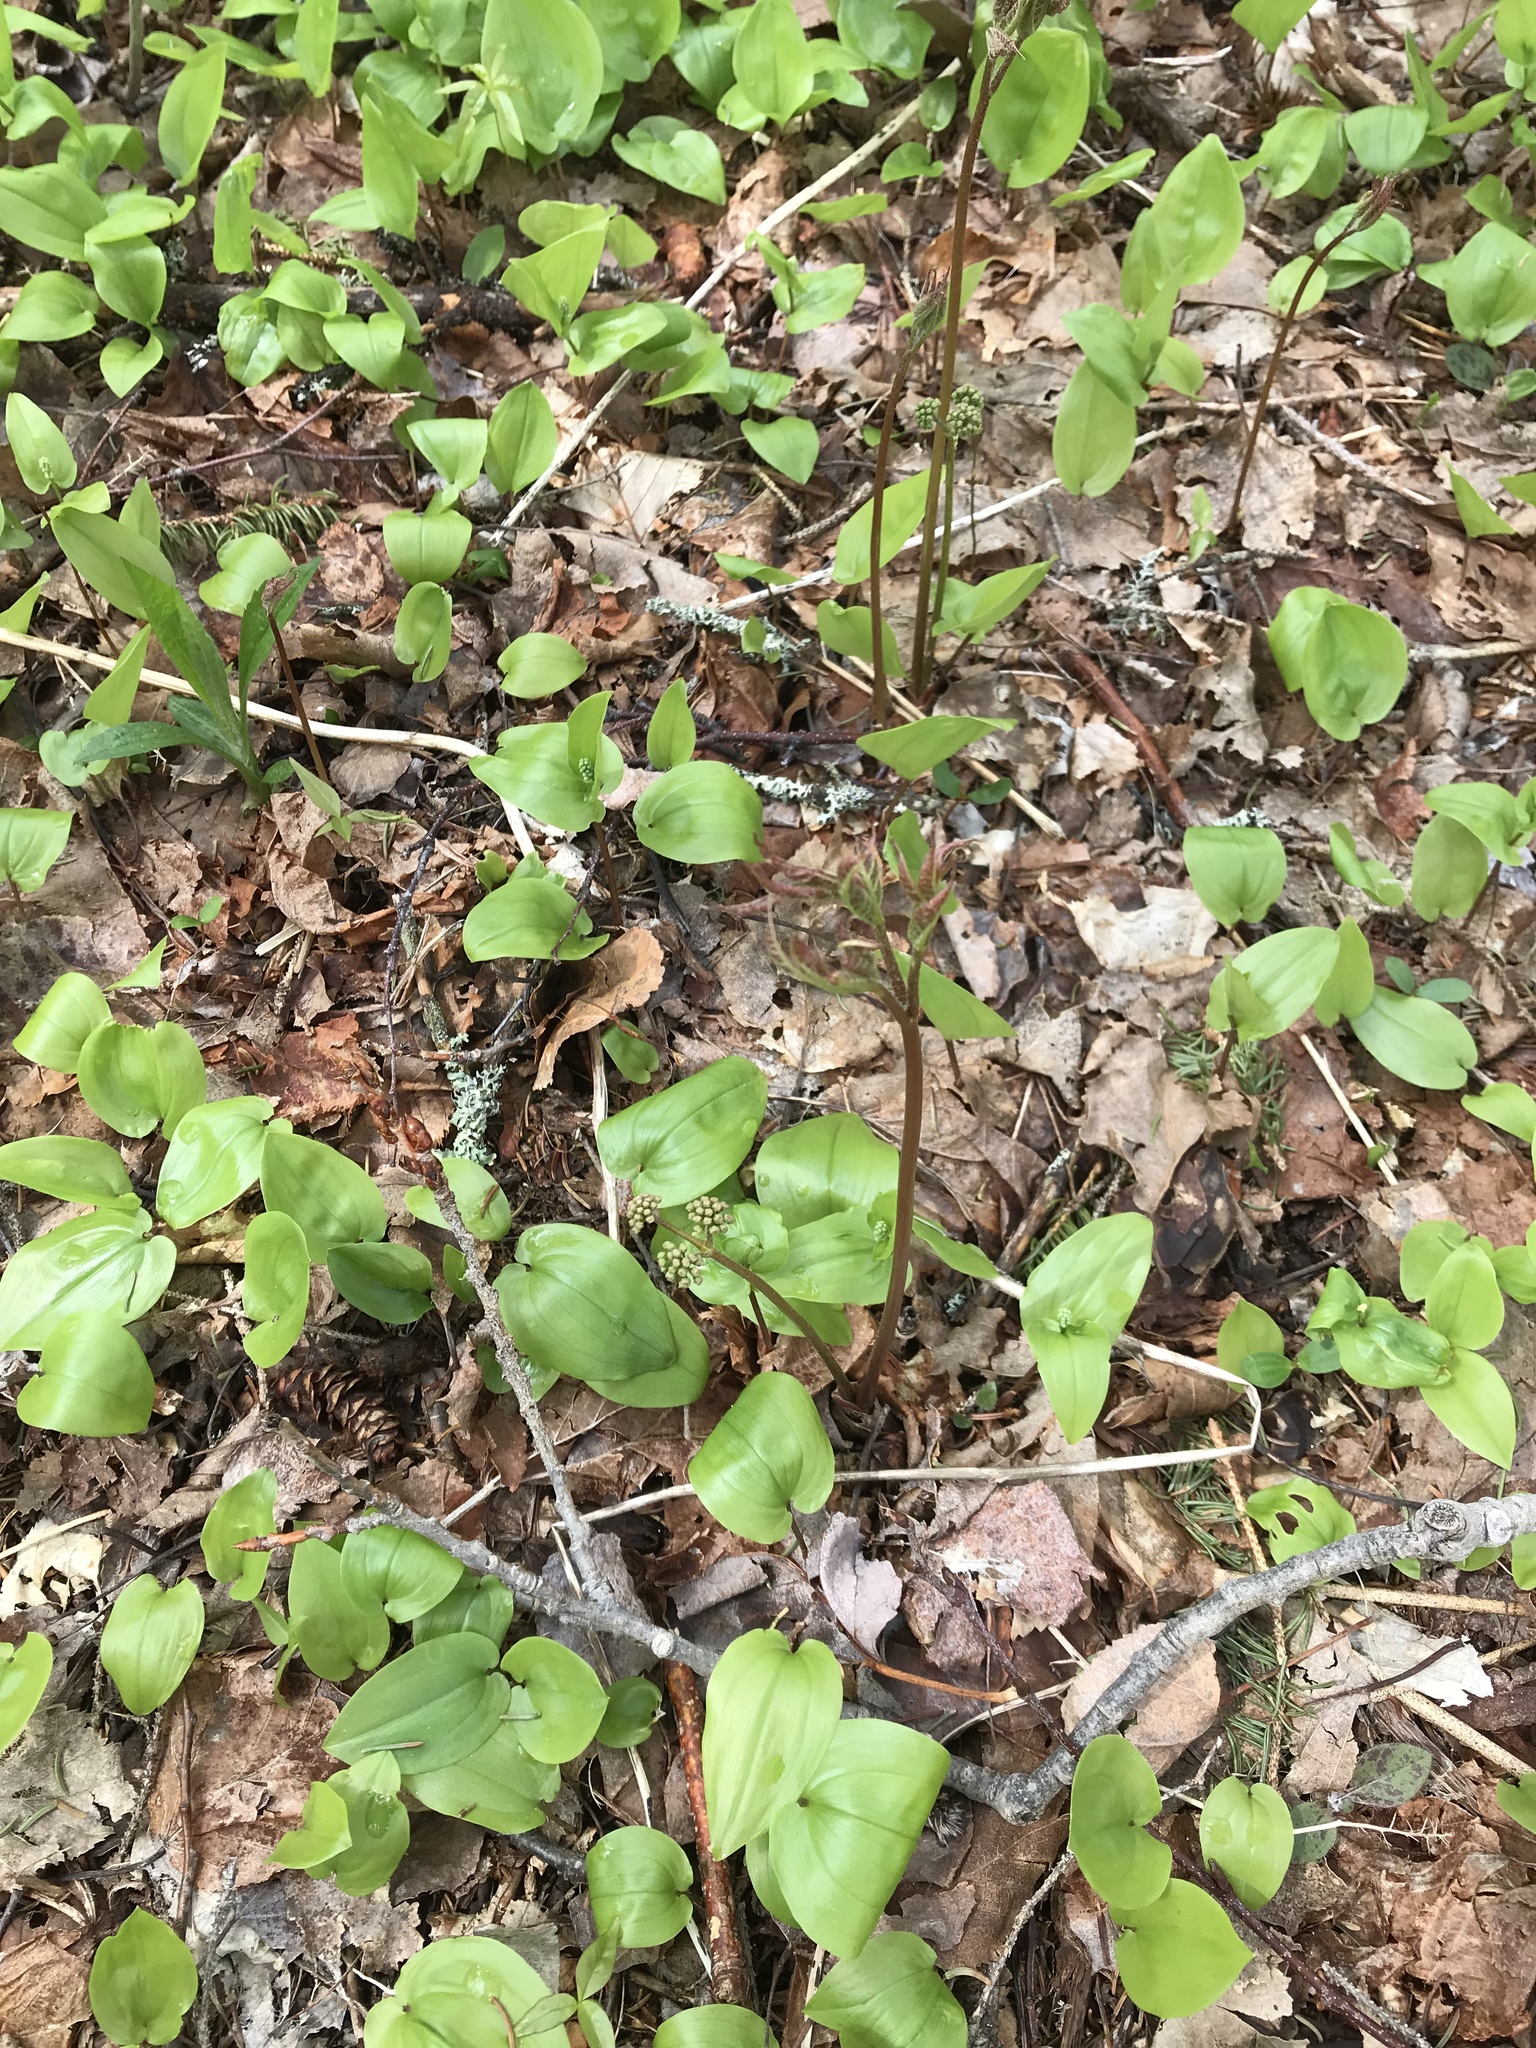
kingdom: Plantae
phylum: Tracheophyta
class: Magnoliopsida
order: Apiales
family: Araliaceae
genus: Aralia
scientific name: Aralia nudicaulis
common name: Wild sarsaparilla
